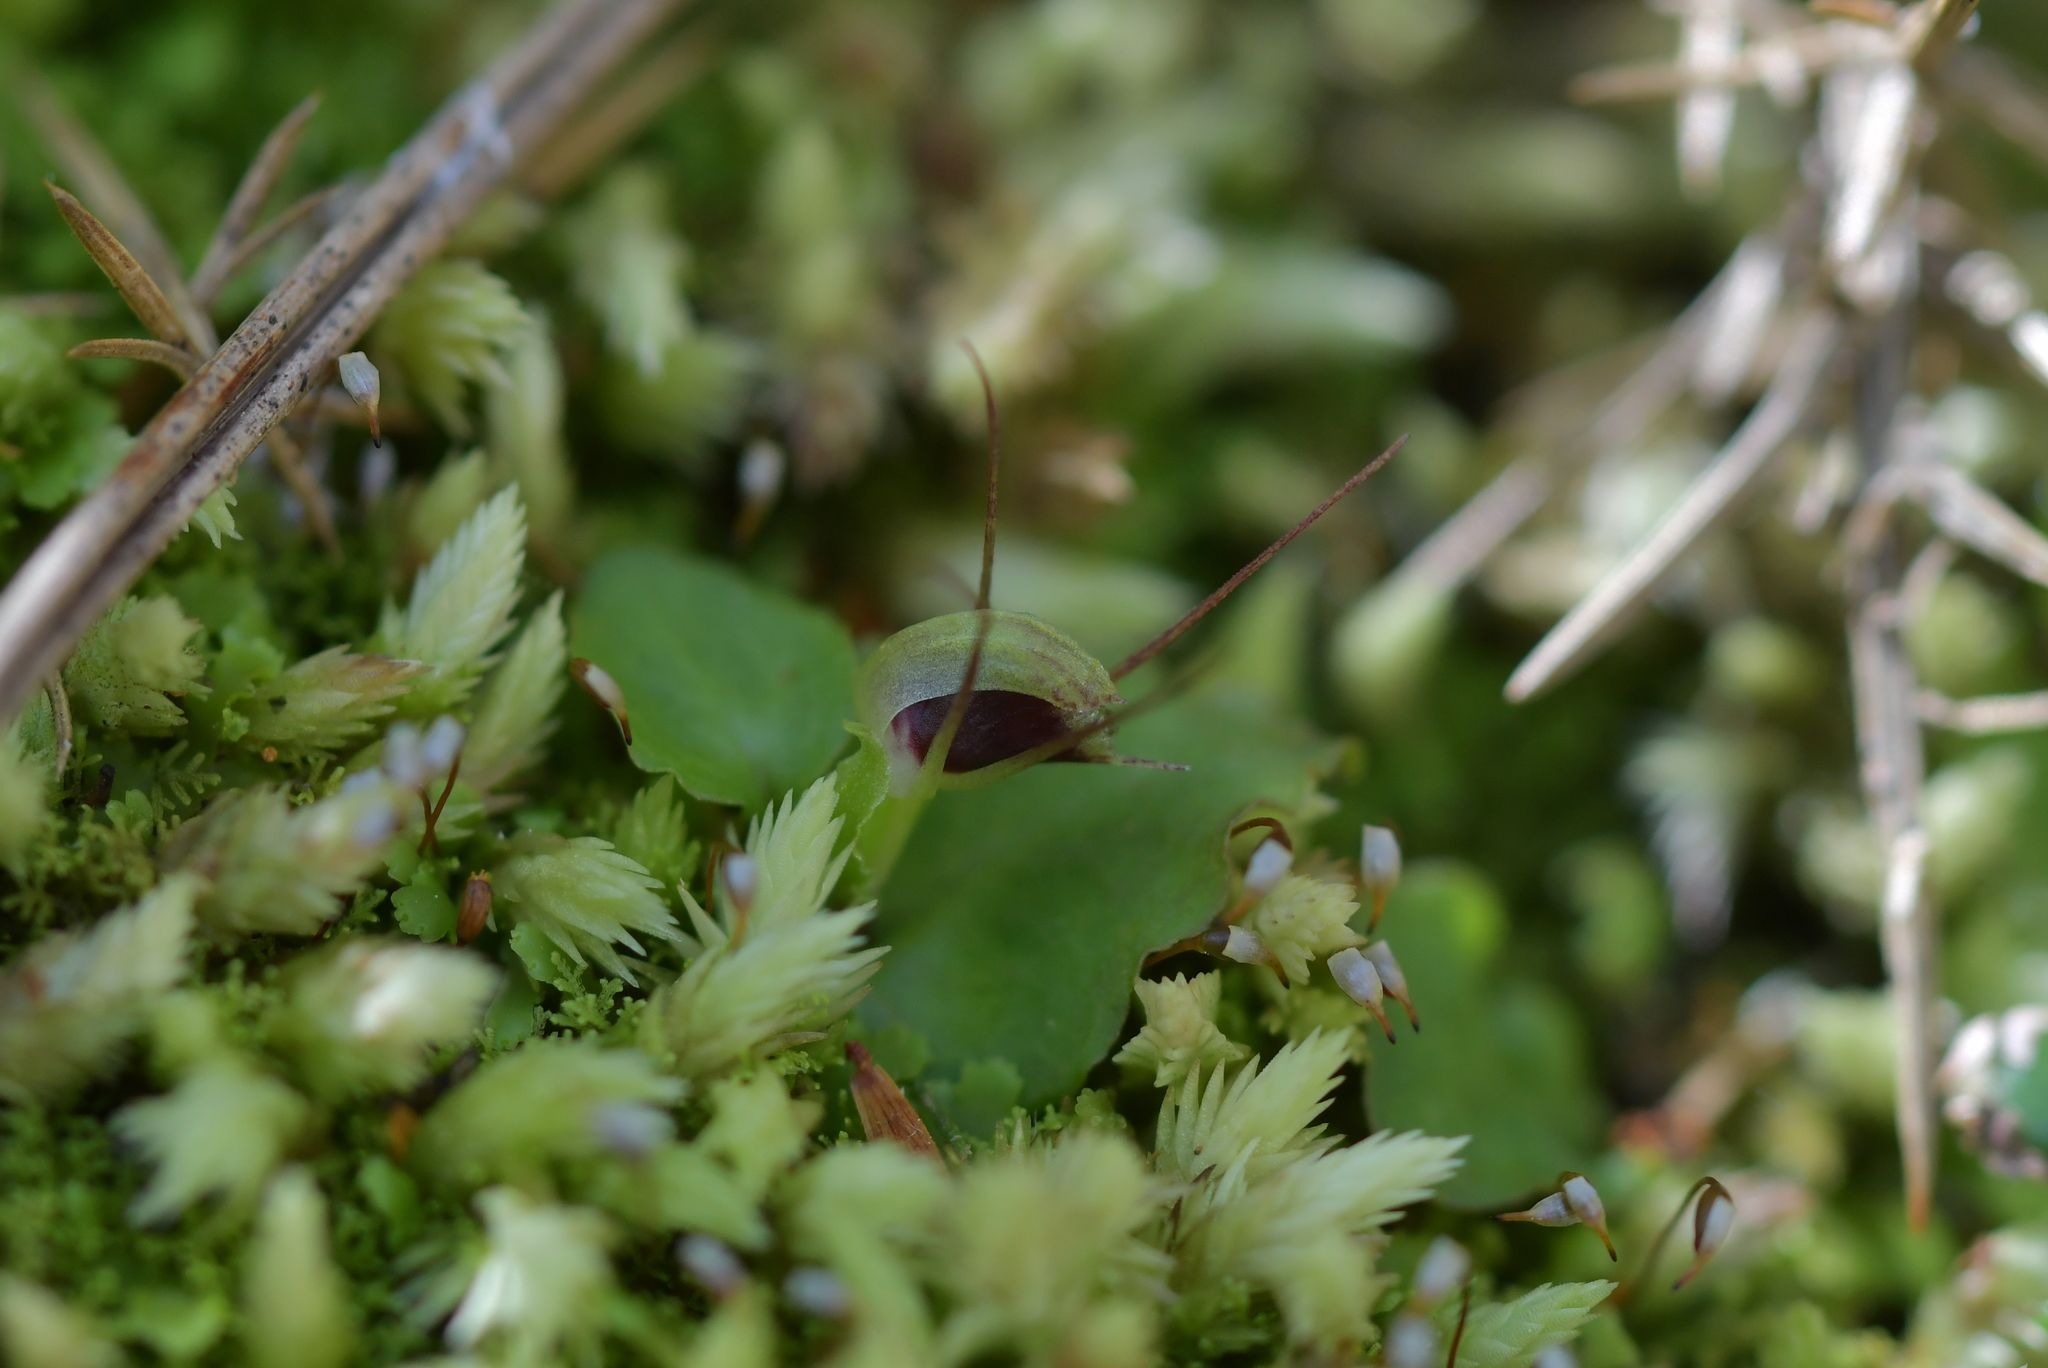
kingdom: Plantae
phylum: Tracheophyta
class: Liliopsida
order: Asparagales
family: Orchidaceae
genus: Corybas
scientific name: Corybas oblongus
